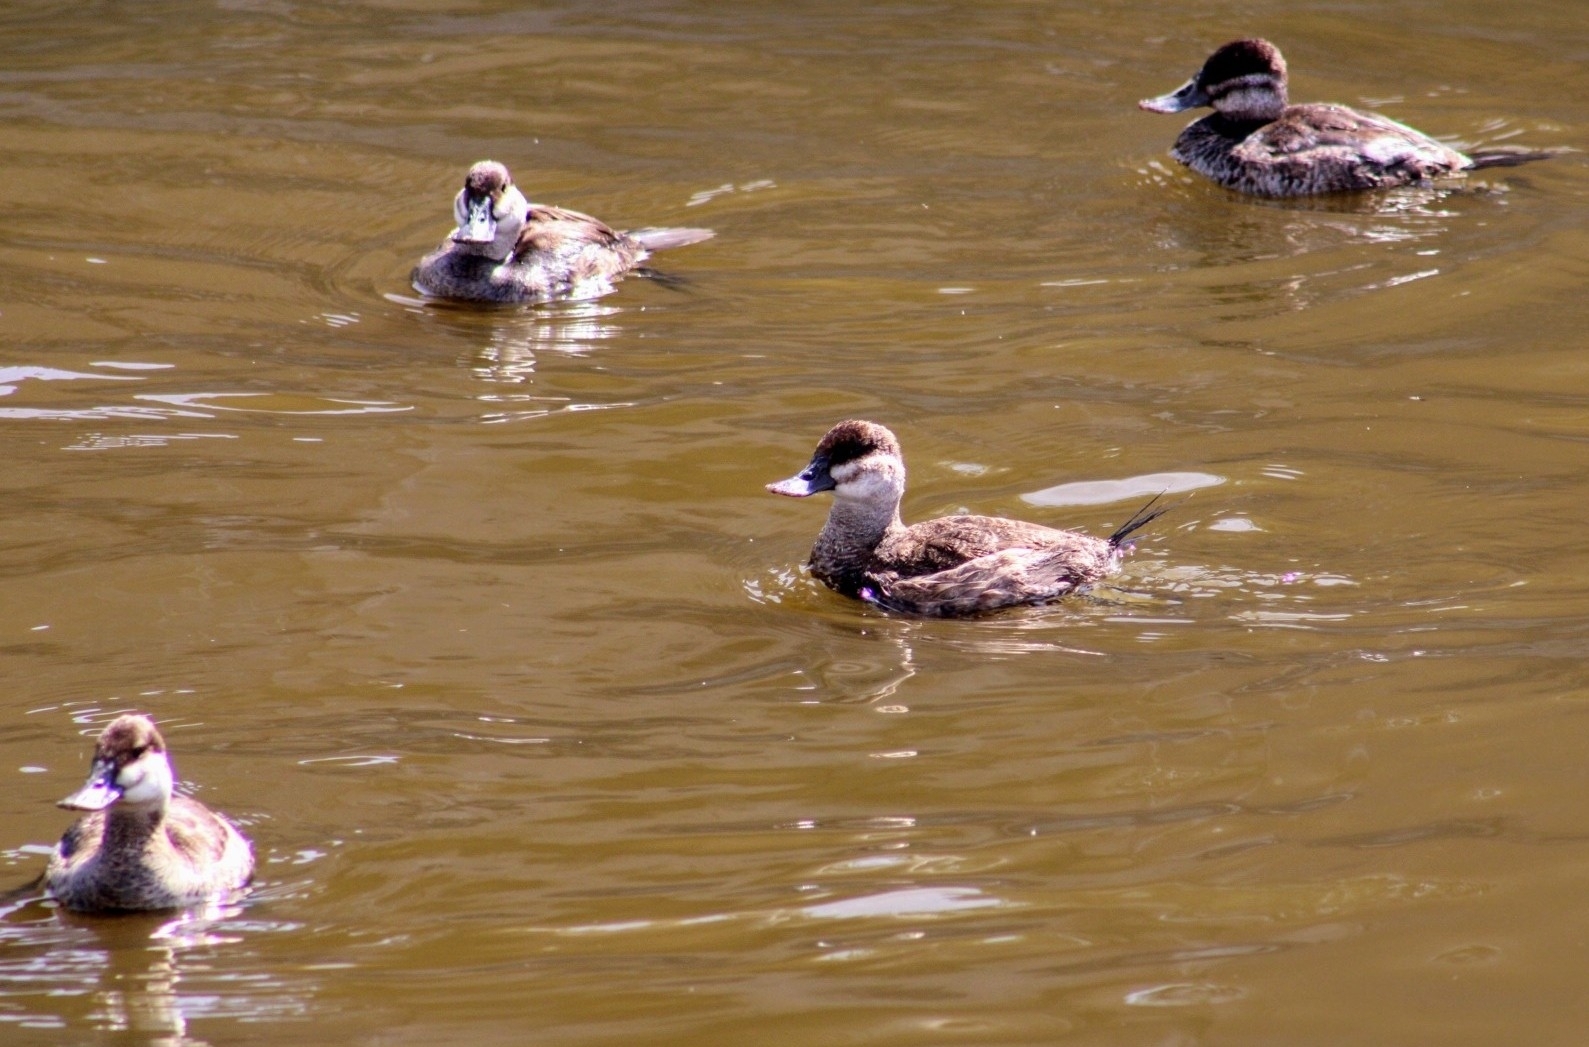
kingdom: Animalia
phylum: Chordata
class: Aves
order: Anseriformes
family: Anatidae
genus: Oxyura
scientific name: Oxyura jamaicensis
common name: Ruddy duck
